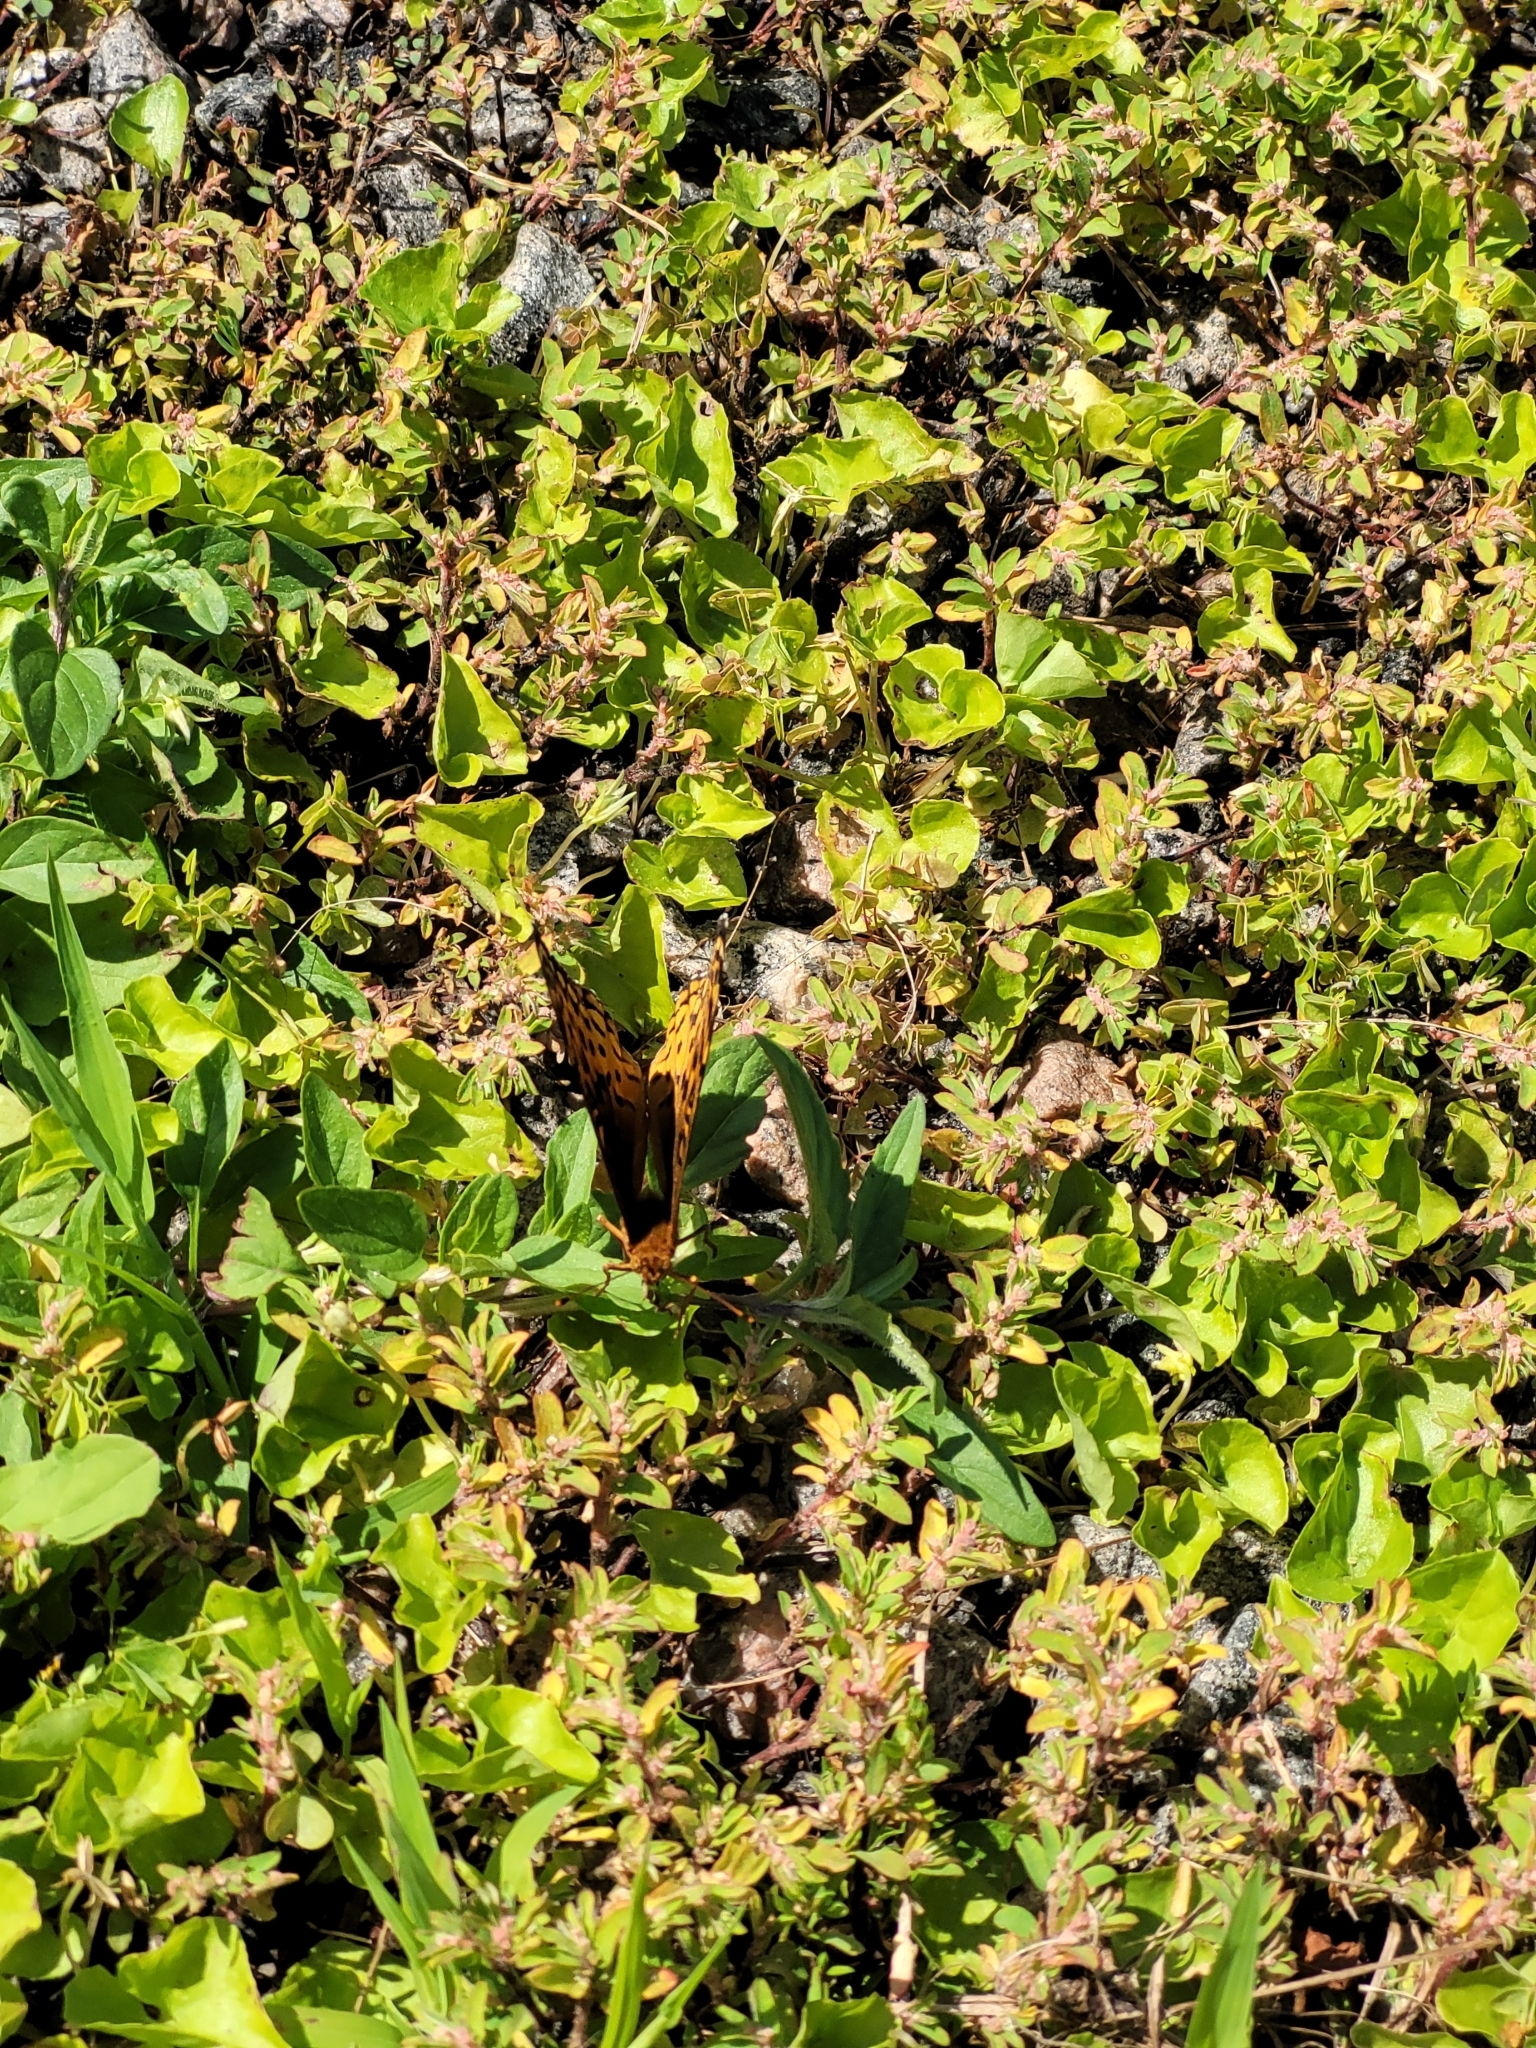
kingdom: Animalia
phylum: Arthropoda
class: Insecta
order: Lepidoptera
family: Nymphalidae
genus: Speyeria
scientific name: Speyeria cybele
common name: Great spangled fritillary
